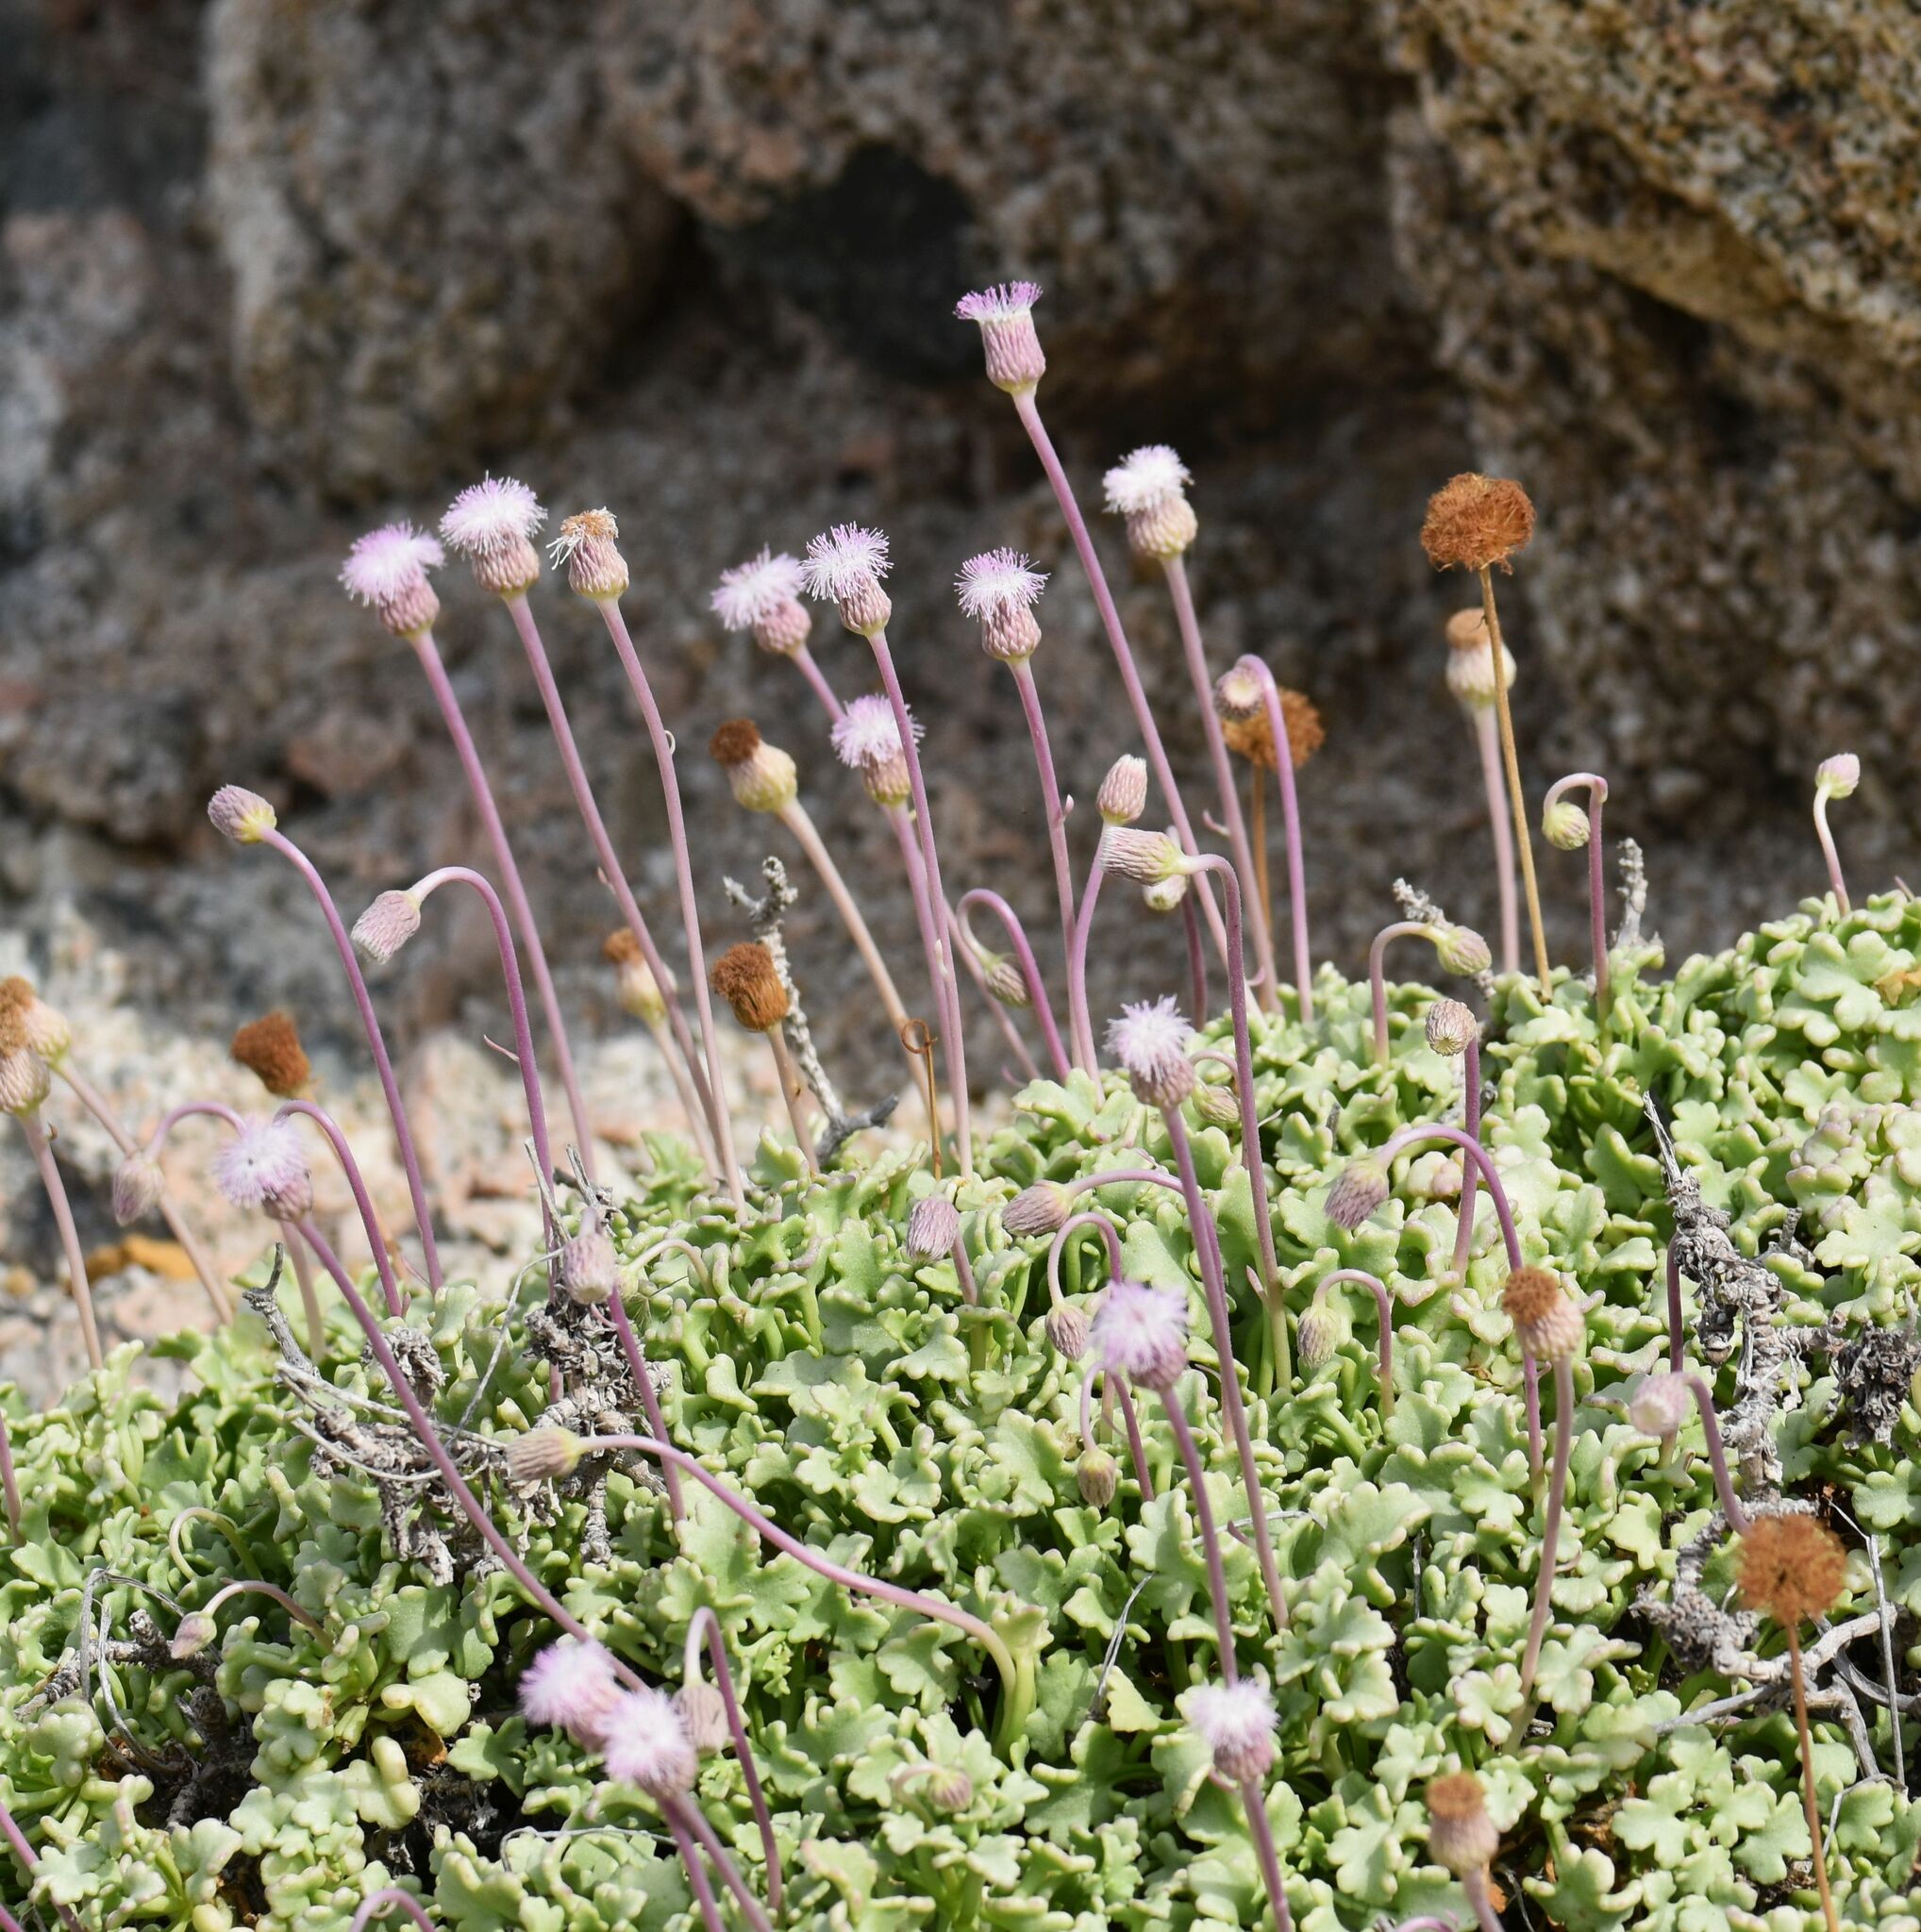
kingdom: Plantae
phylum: Tracheophyta
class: Magnoliopsida
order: Asterales
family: Asteraceae
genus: Hofmeisteria
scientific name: Hofmeisteria fasciculata
